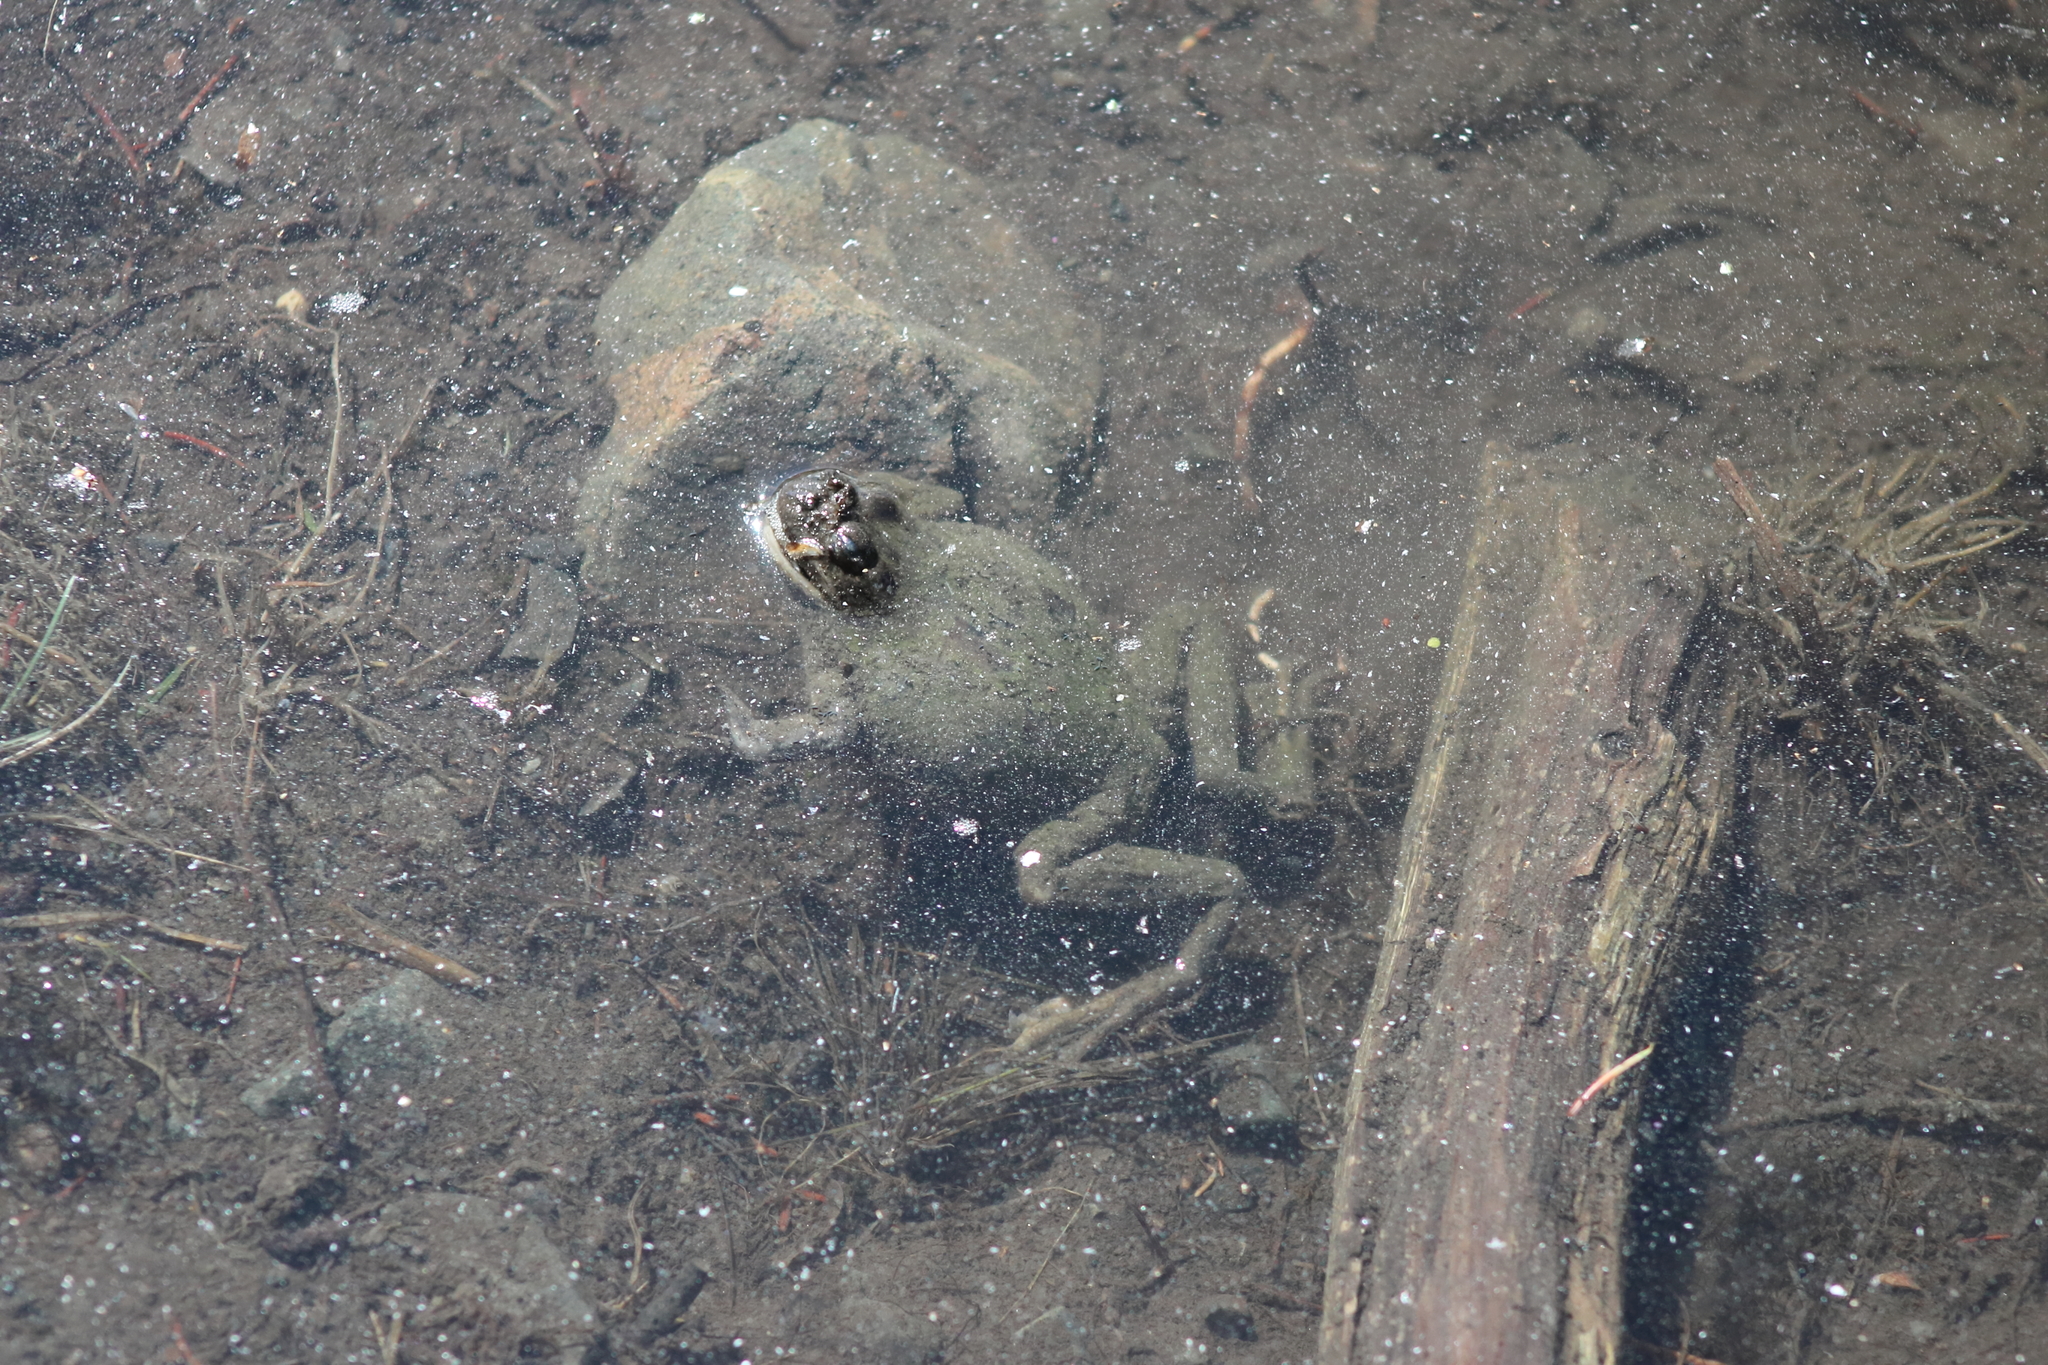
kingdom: Animalia
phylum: Chordata
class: Amphibia
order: Anura
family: Bufonidae
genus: Anaxyrus
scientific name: Anaxyrus boreas
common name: Western toad
